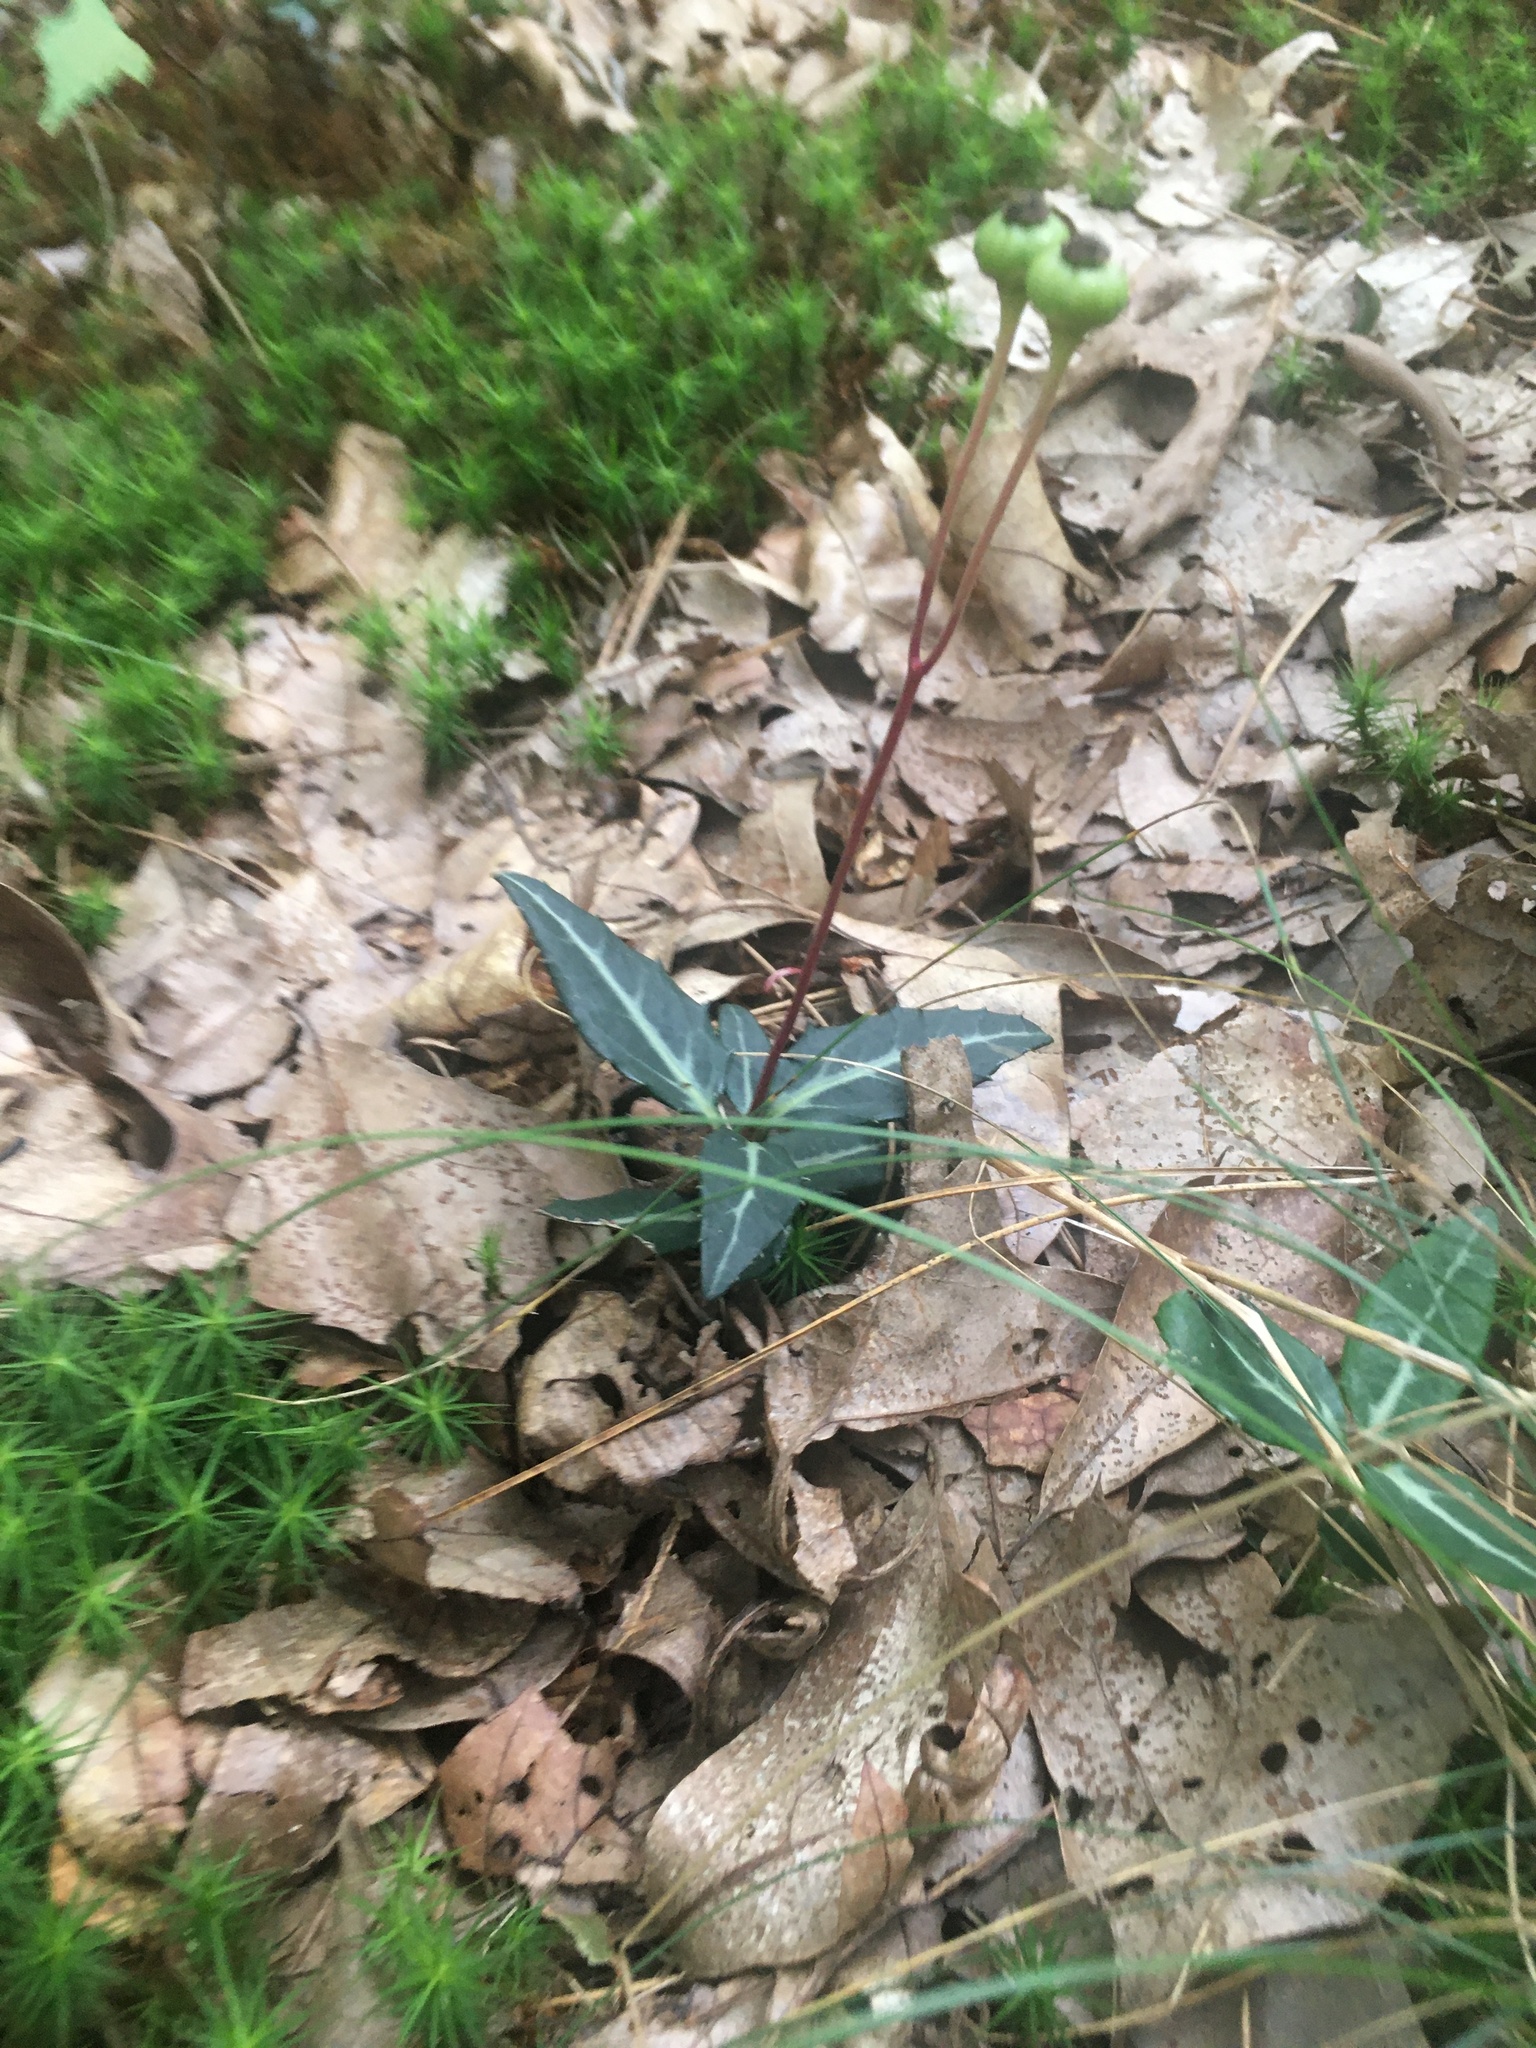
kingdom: Plantae
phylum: Tracheophyta
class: Magnoliopsida
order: Ericales
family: Ericaceae
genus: Chimaphila
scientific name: Chimaphila maculata
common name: Spotted pipsissewa
